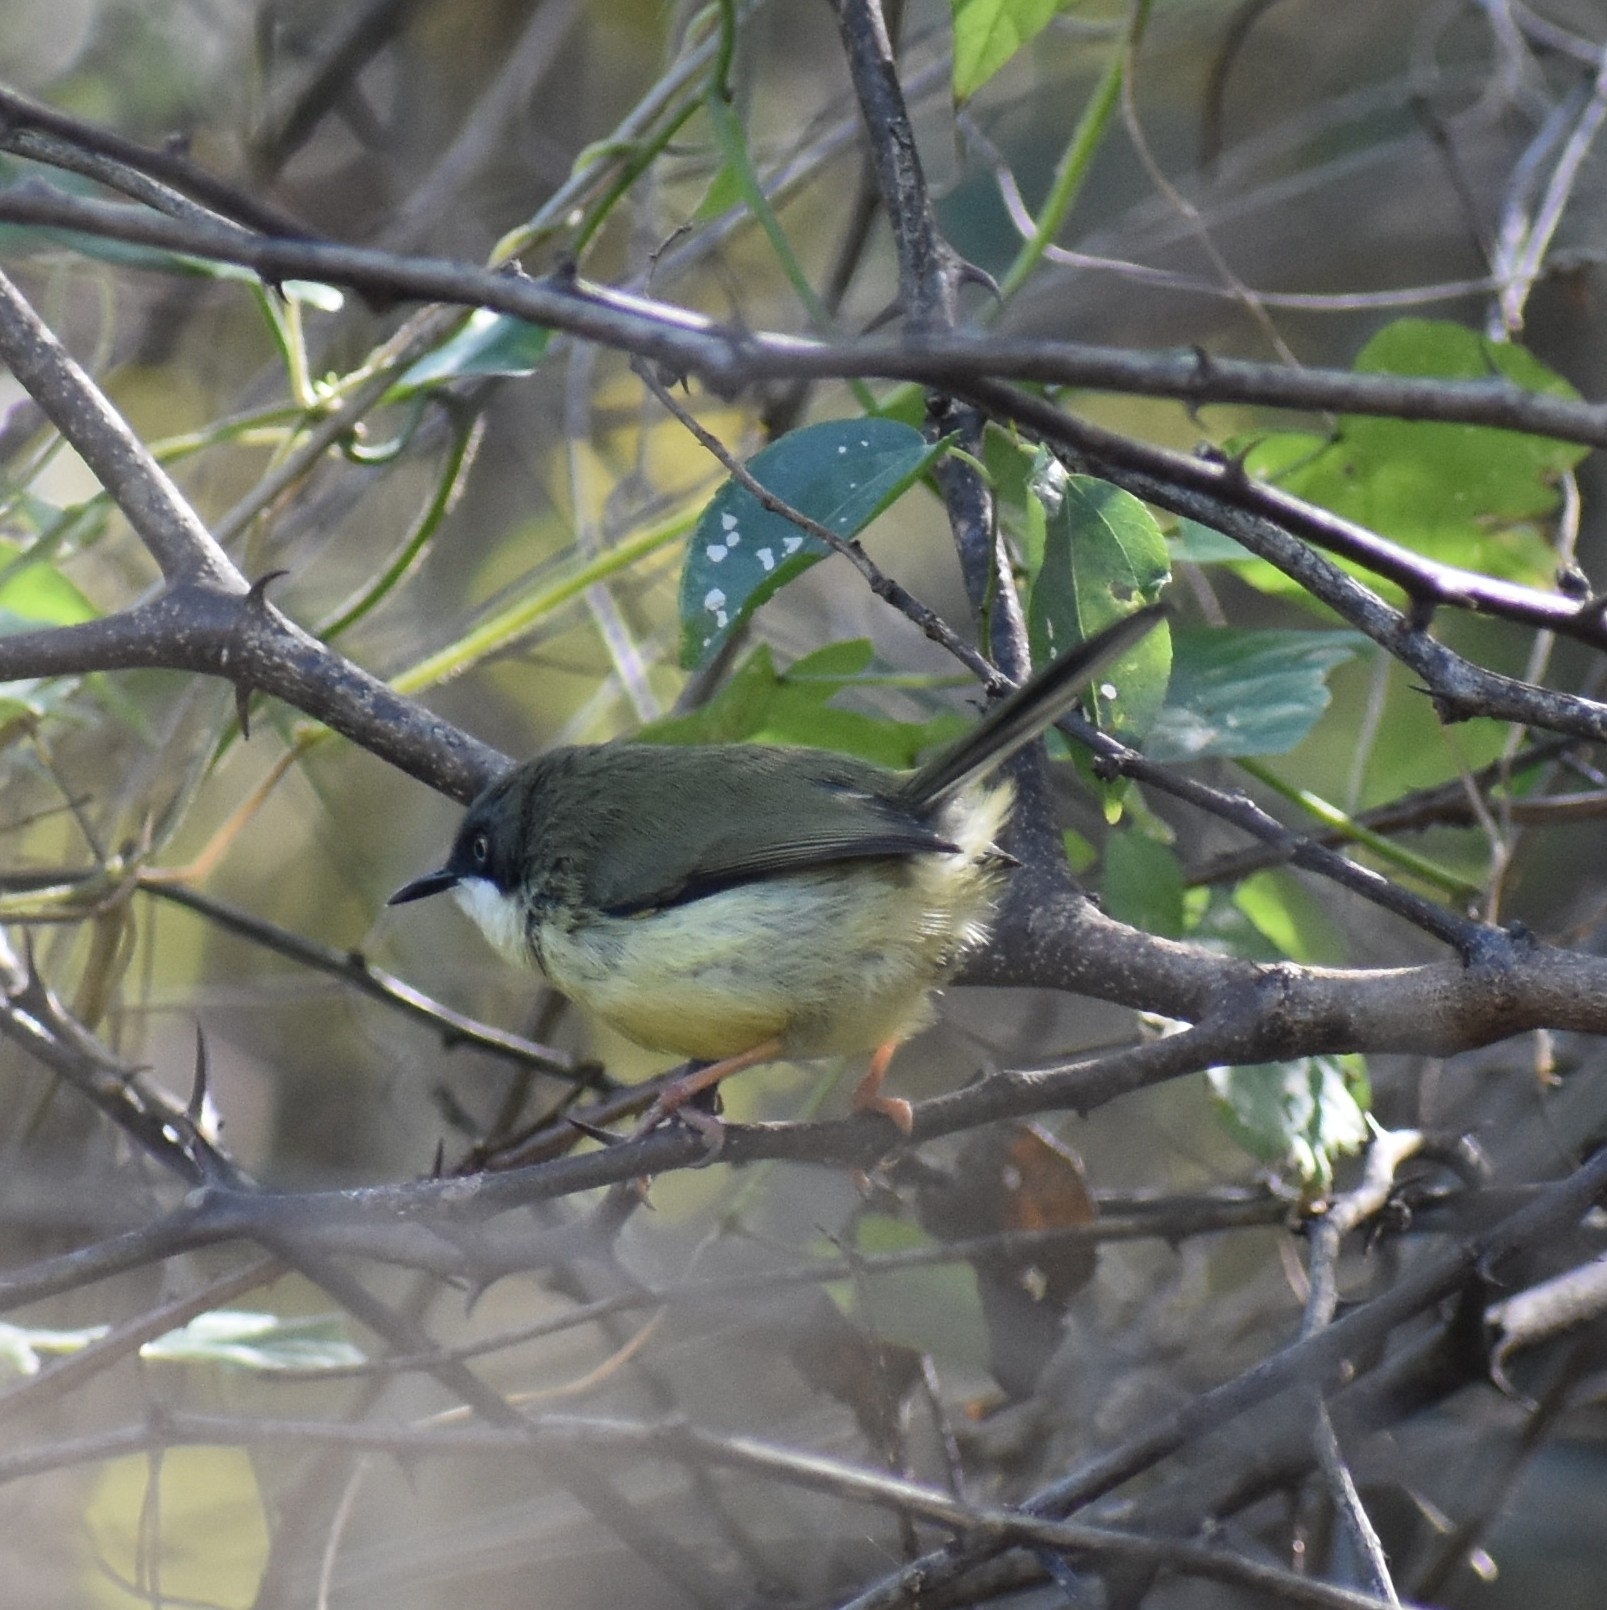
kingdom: Animalia
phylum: Chordata
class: Aves
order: Passeriformes
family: Cisticolidae
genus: Apalis
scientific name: Apalis thoracica
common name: Bar-throated apalis
